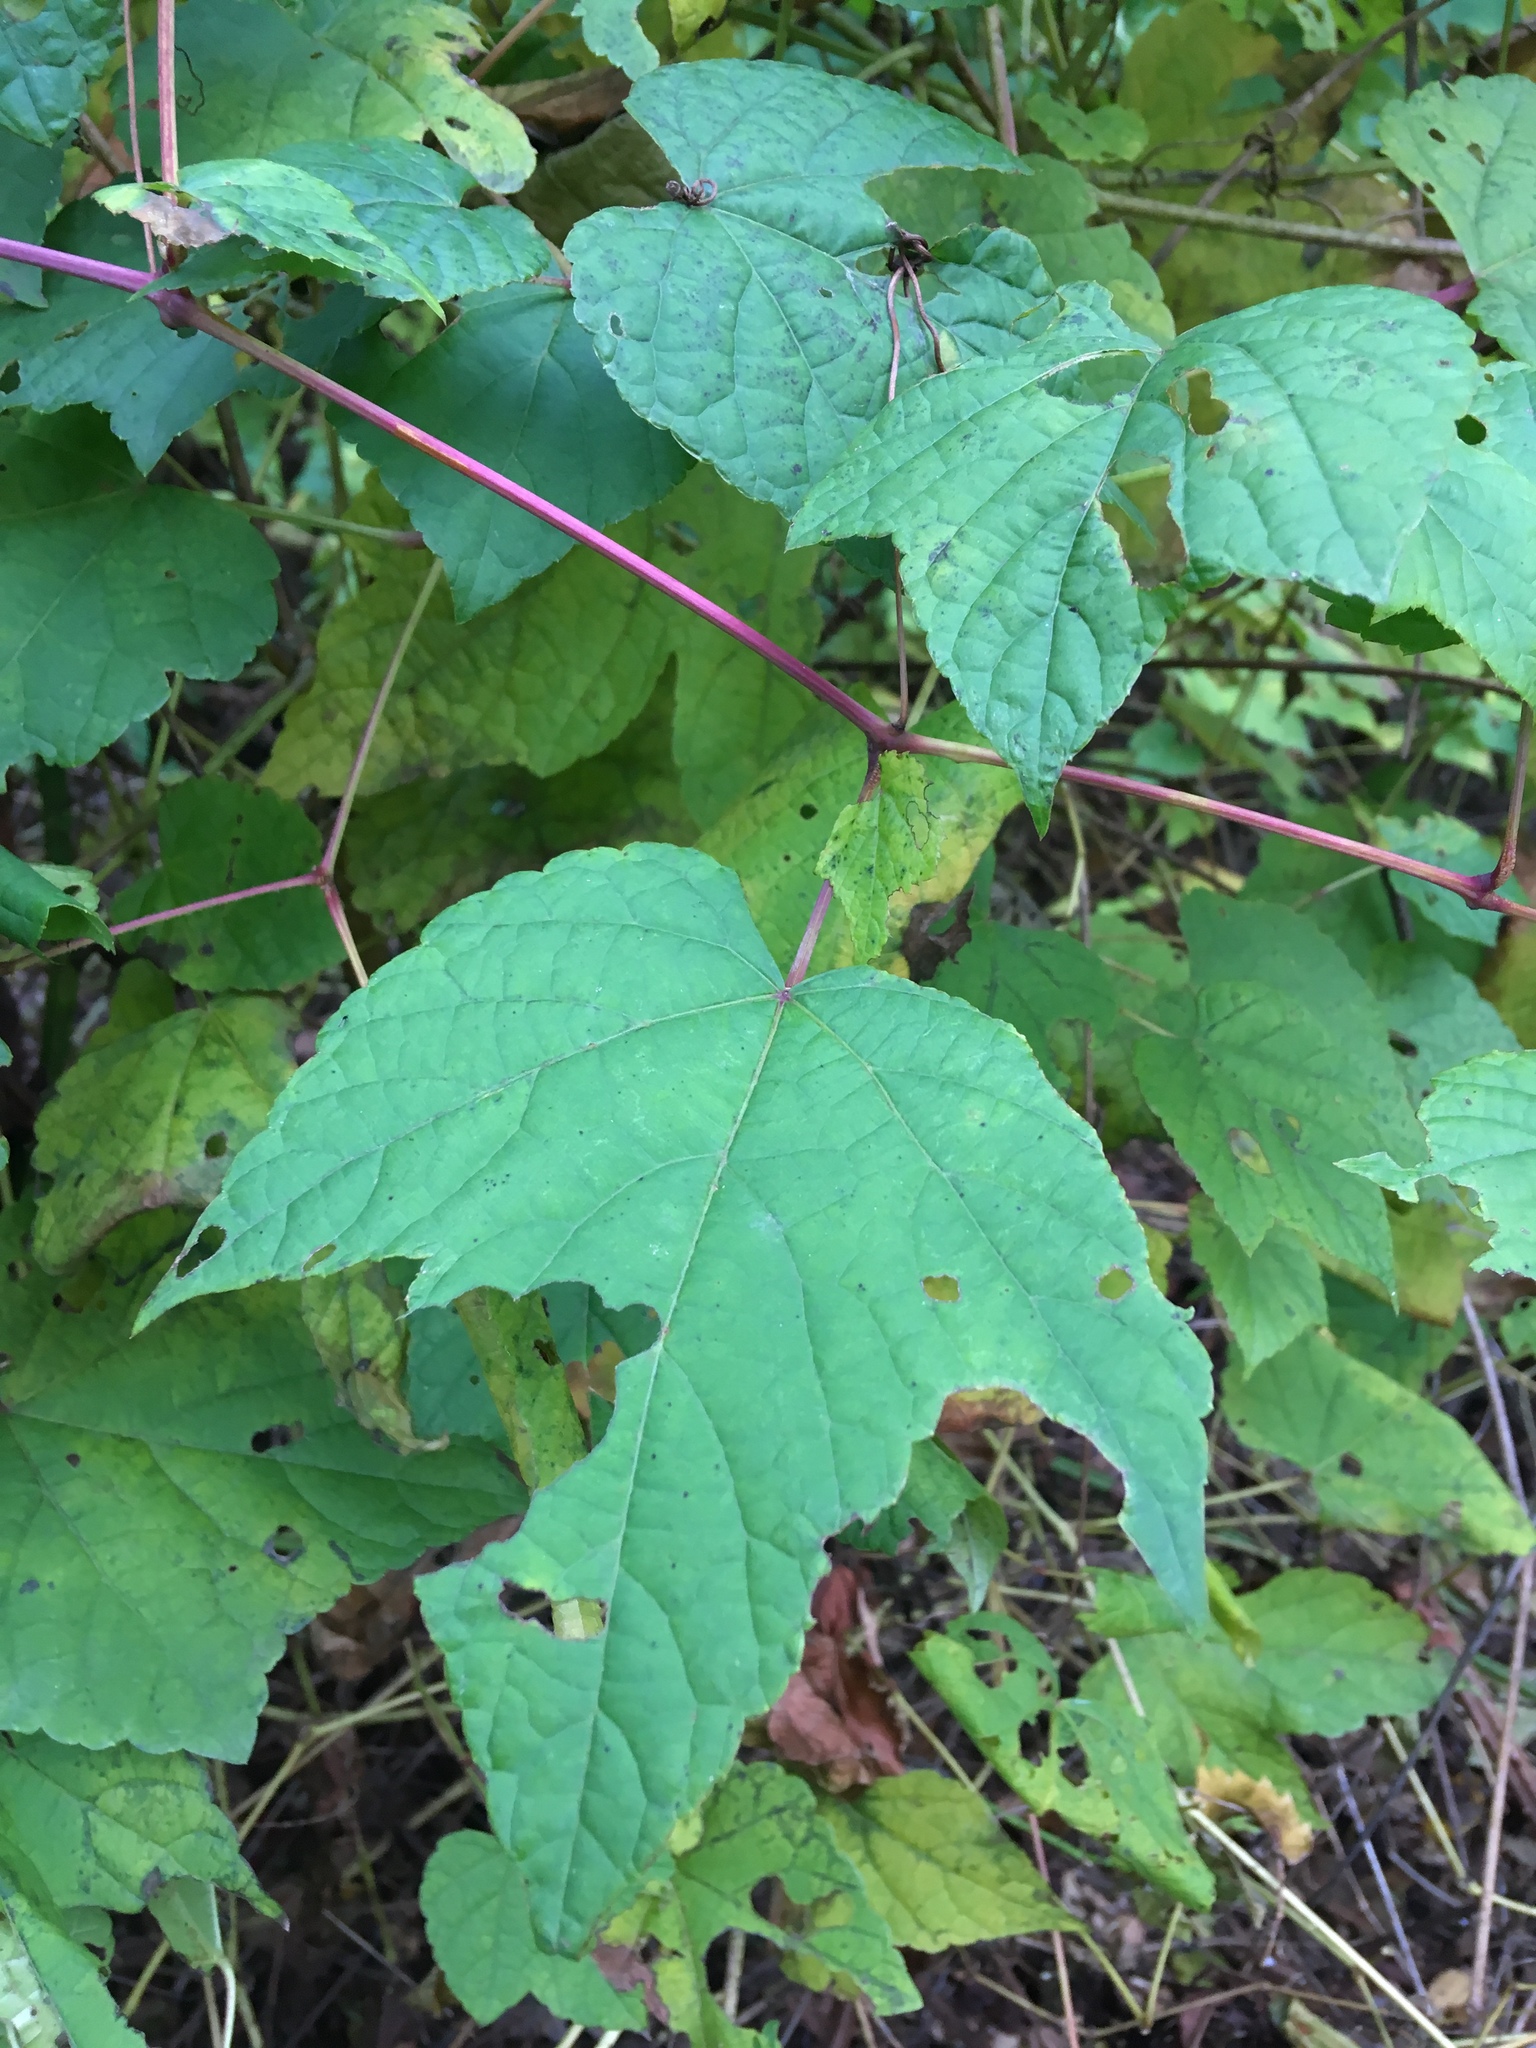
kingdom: Plantae
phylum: Tracheophyta
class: Magnoliopsida
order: Vitales
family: Vitaceae
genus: Ampelopsis
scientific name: Ampelopsis glandulosa
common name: Amur peppervine
